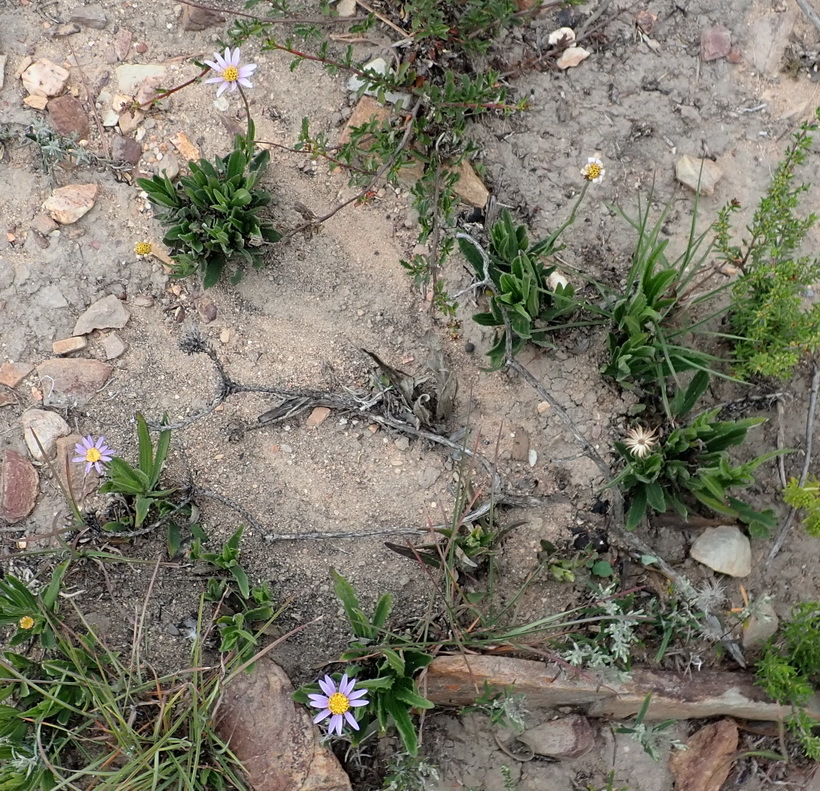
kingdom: Plantae
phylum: Tracheophyta
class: Magnoliopsida
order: Asterales
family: Asteraceae
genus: Afroaster
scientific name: Afroaster hispidus
